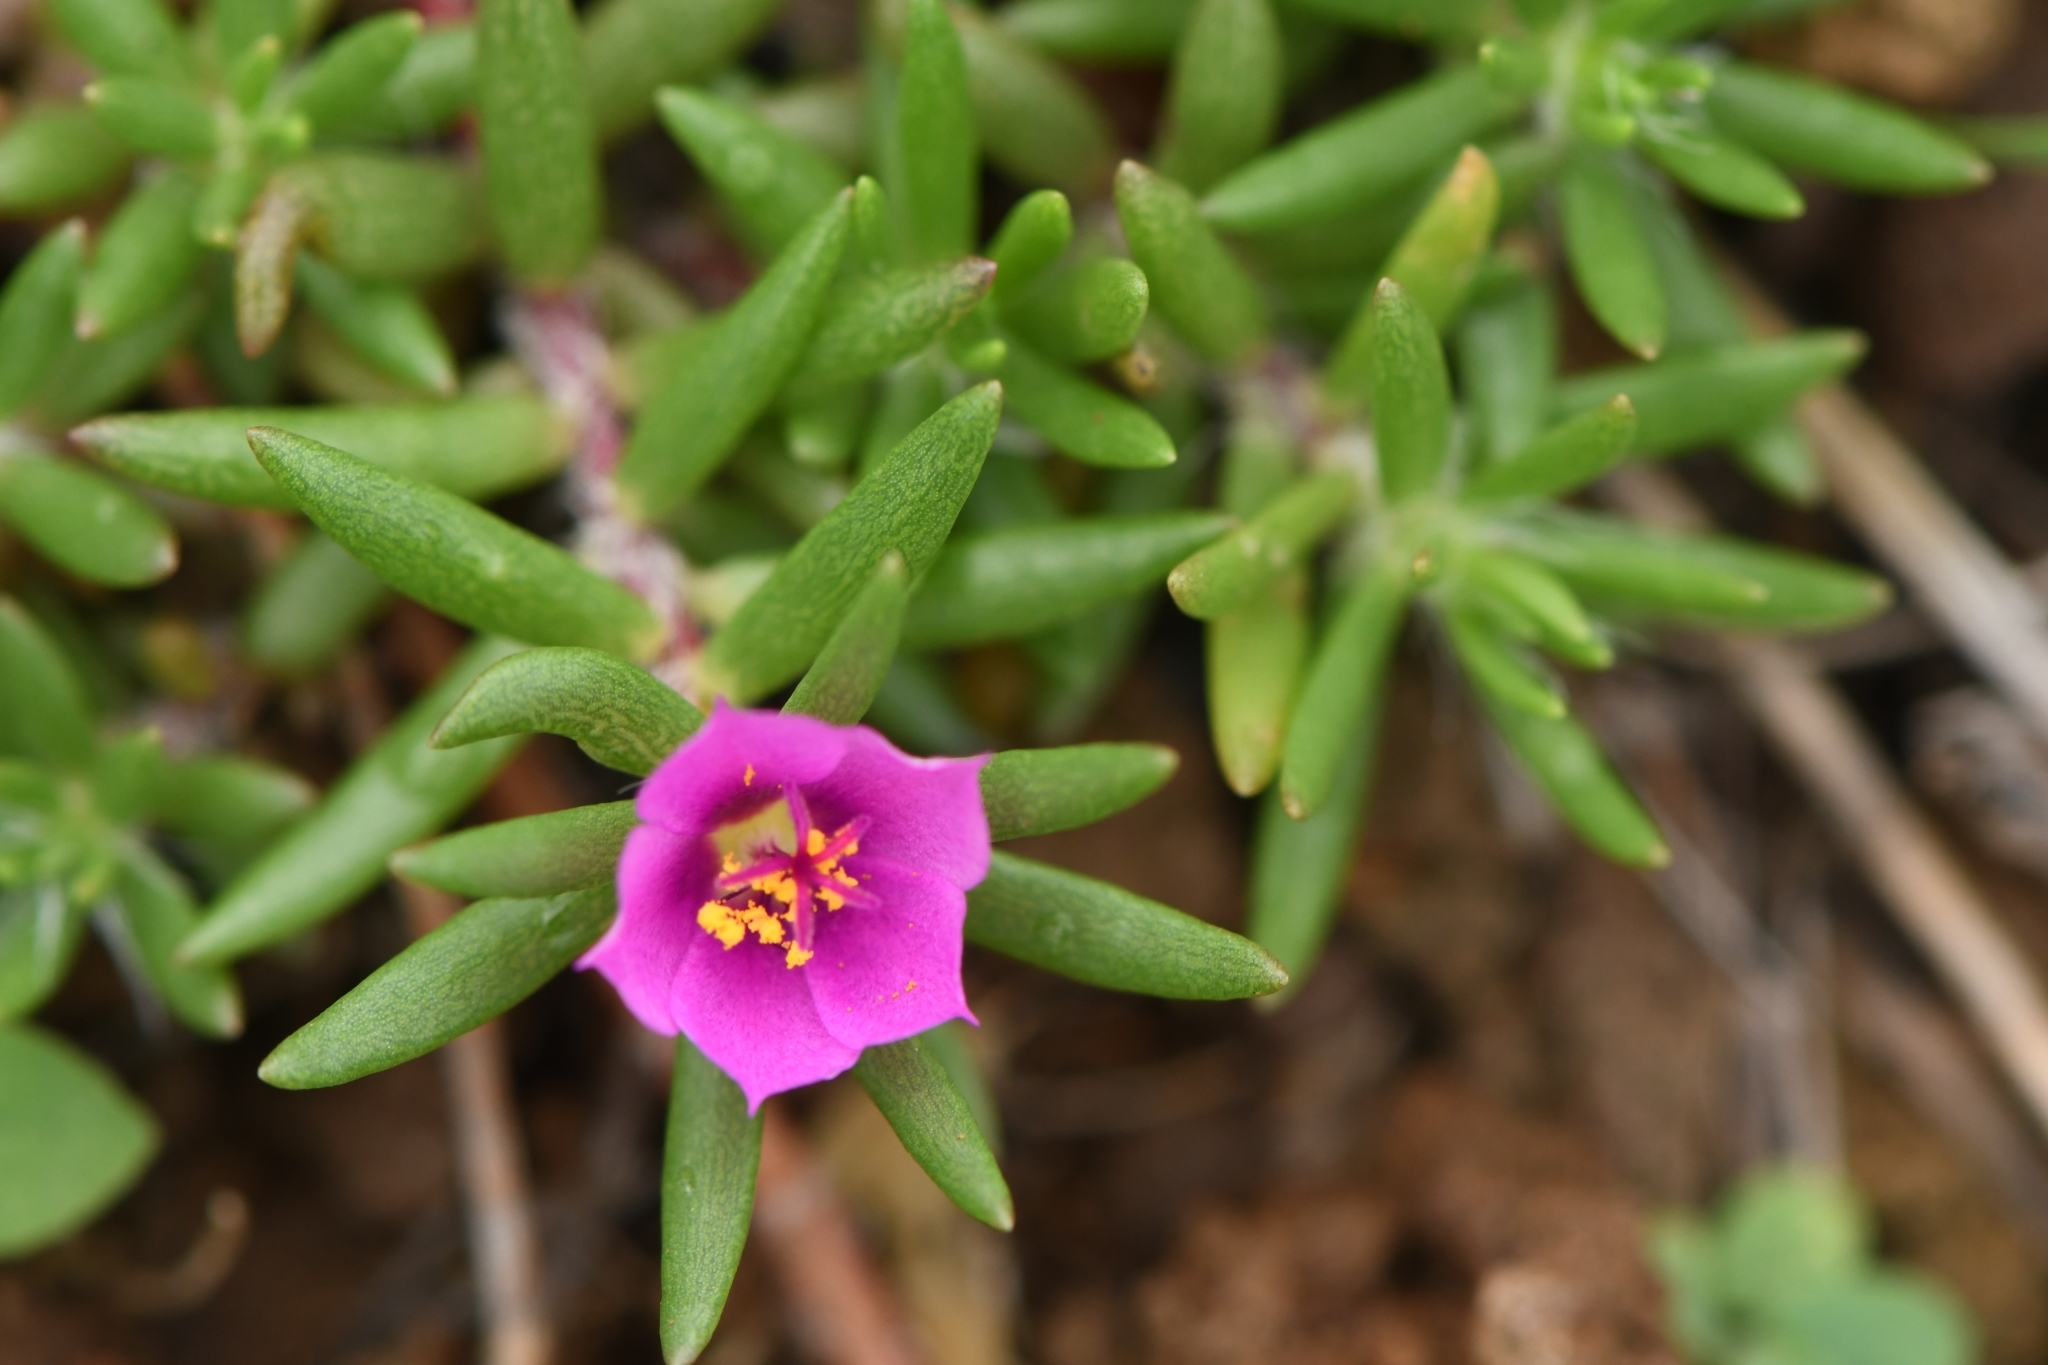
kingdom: Plantae
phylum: Tracheophyta
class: Magnoliopsida
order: Caryophyllales
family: Portulacaceae
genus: Portulaca
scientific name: Portulaca pilosa
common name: Kiss me quick
